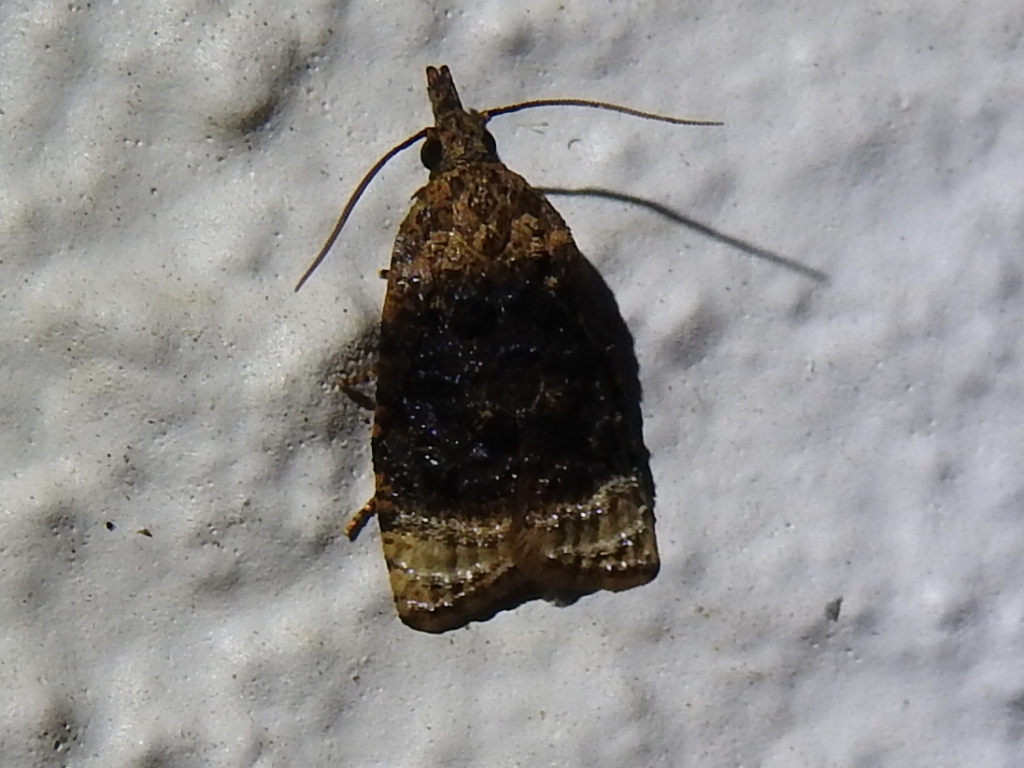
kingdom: Animalia
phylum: Arthropoda
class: Insecta
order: Lepidoptera
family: Tortricidae
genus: Platynota
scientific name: Platynota flavedana
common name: Black-shaded platynota moth
